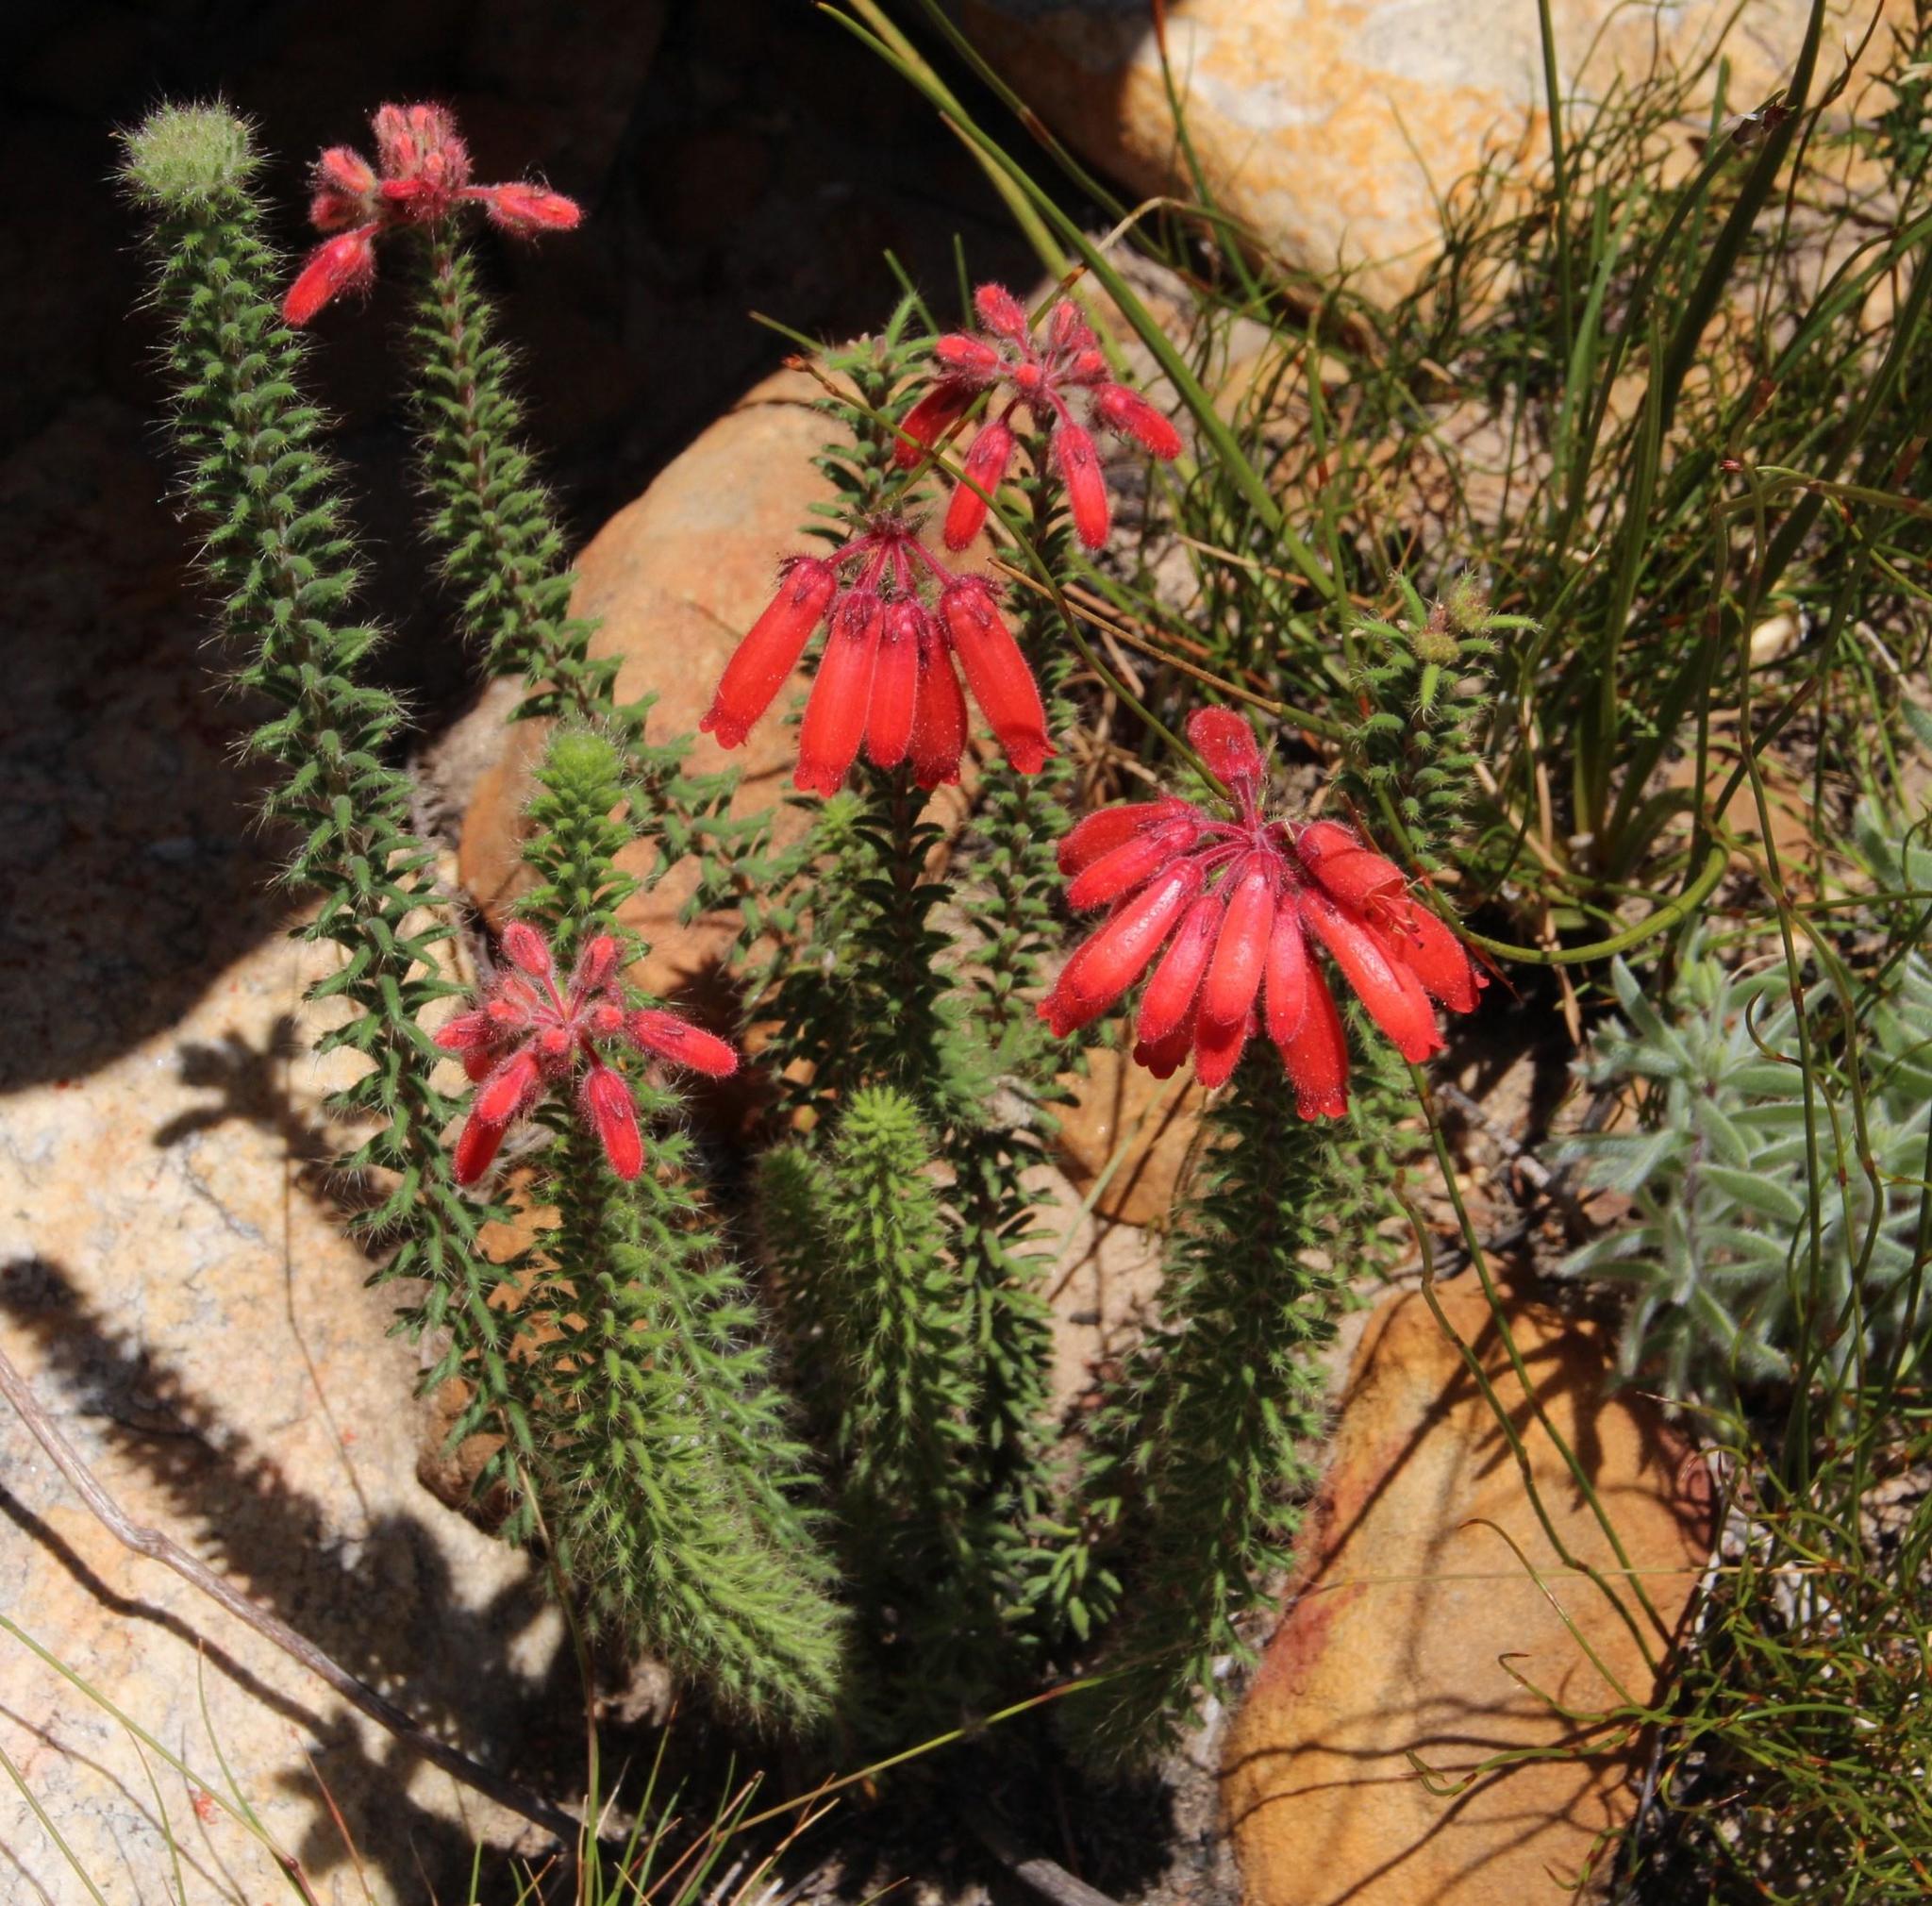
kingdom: Plantae
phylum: Tracheophyta
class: Magnoliopsida
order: Ericales
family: Ericaceae
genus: Erica
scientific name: Erica cerinthoides
